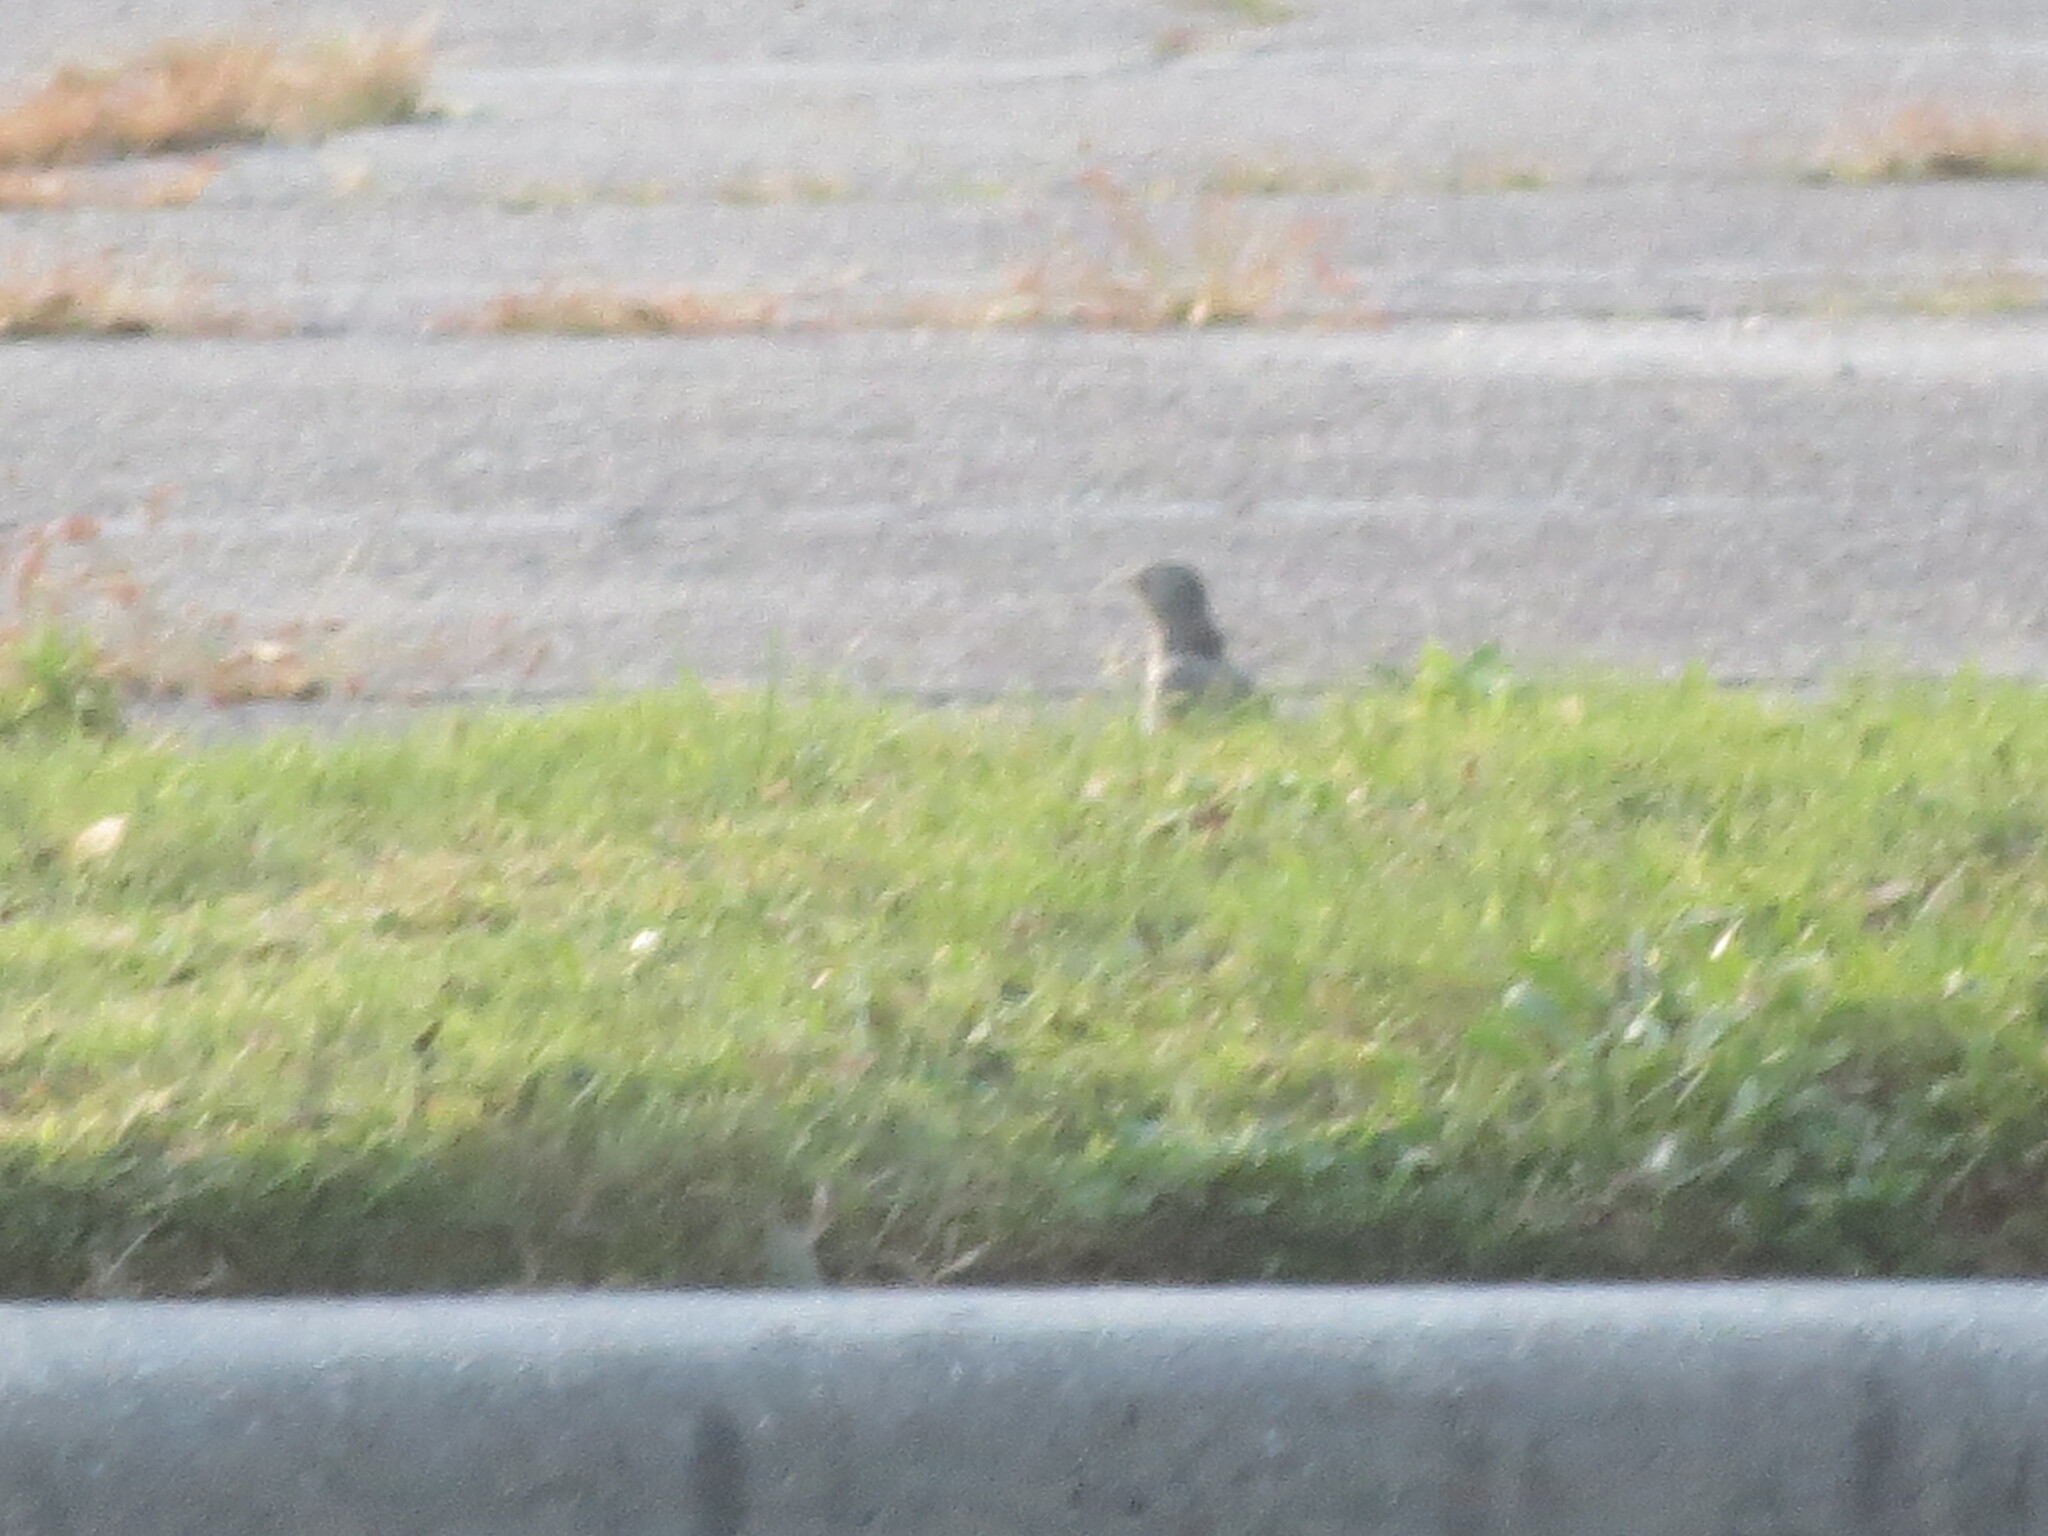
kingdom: Animalia
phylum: Chordata
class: Aves
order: Passeriformes
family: Mimidae
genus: Mimus
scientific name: Mimus polyglottos
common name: Northern mockingbird
